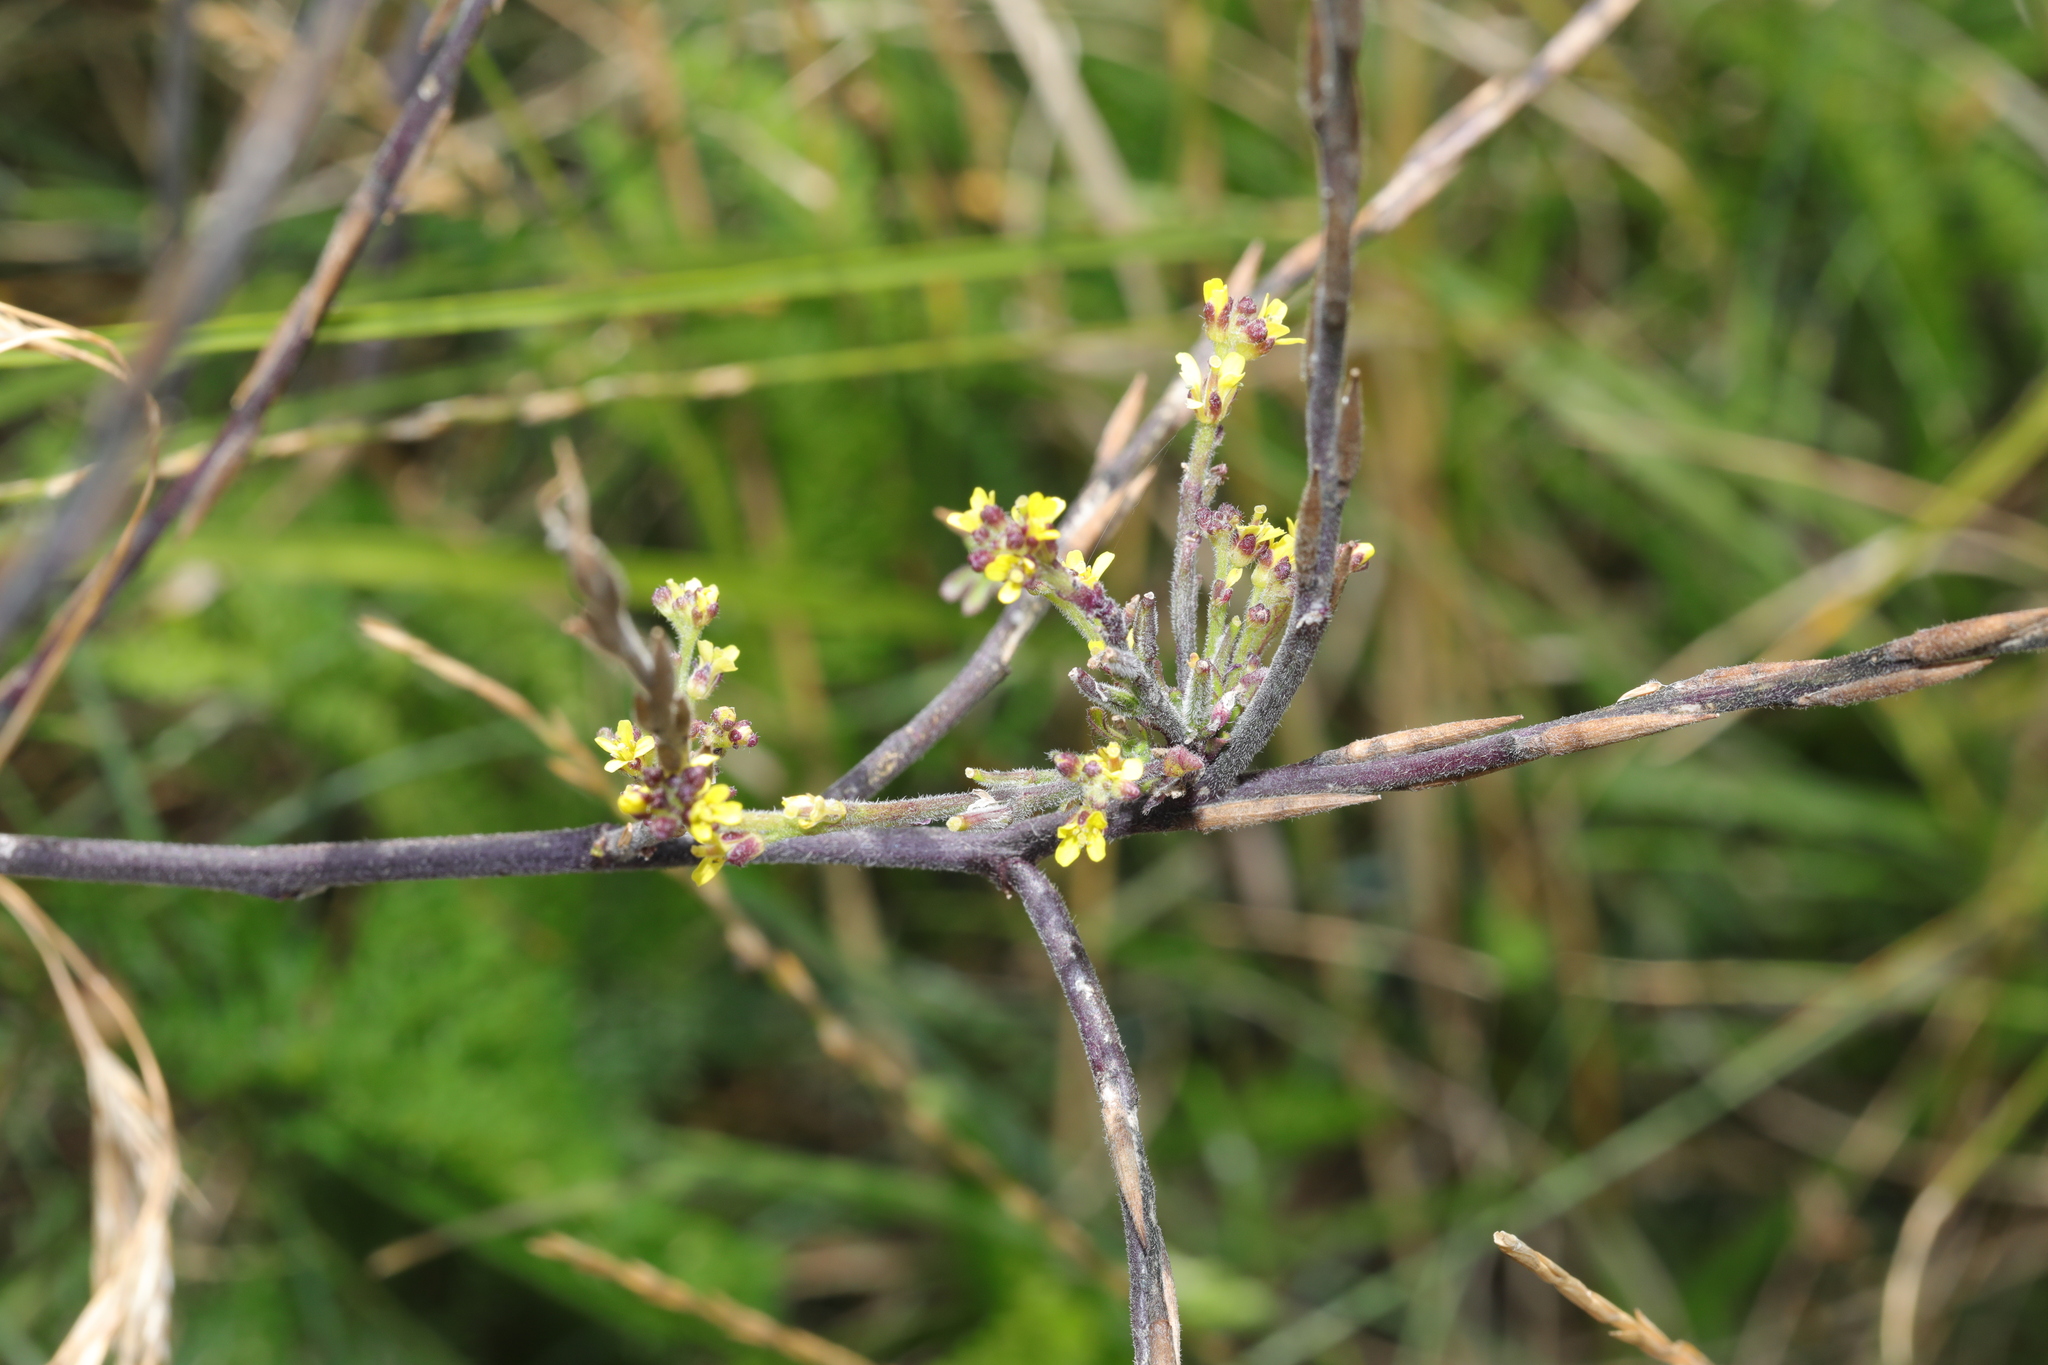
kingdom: Plantae
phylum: Tracheophyta
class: Magnoliopsida
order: Brassicales
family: Brassicaceae
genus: Sisymbrium
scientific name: Sisymbrium officinale
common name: Hedge mustard
